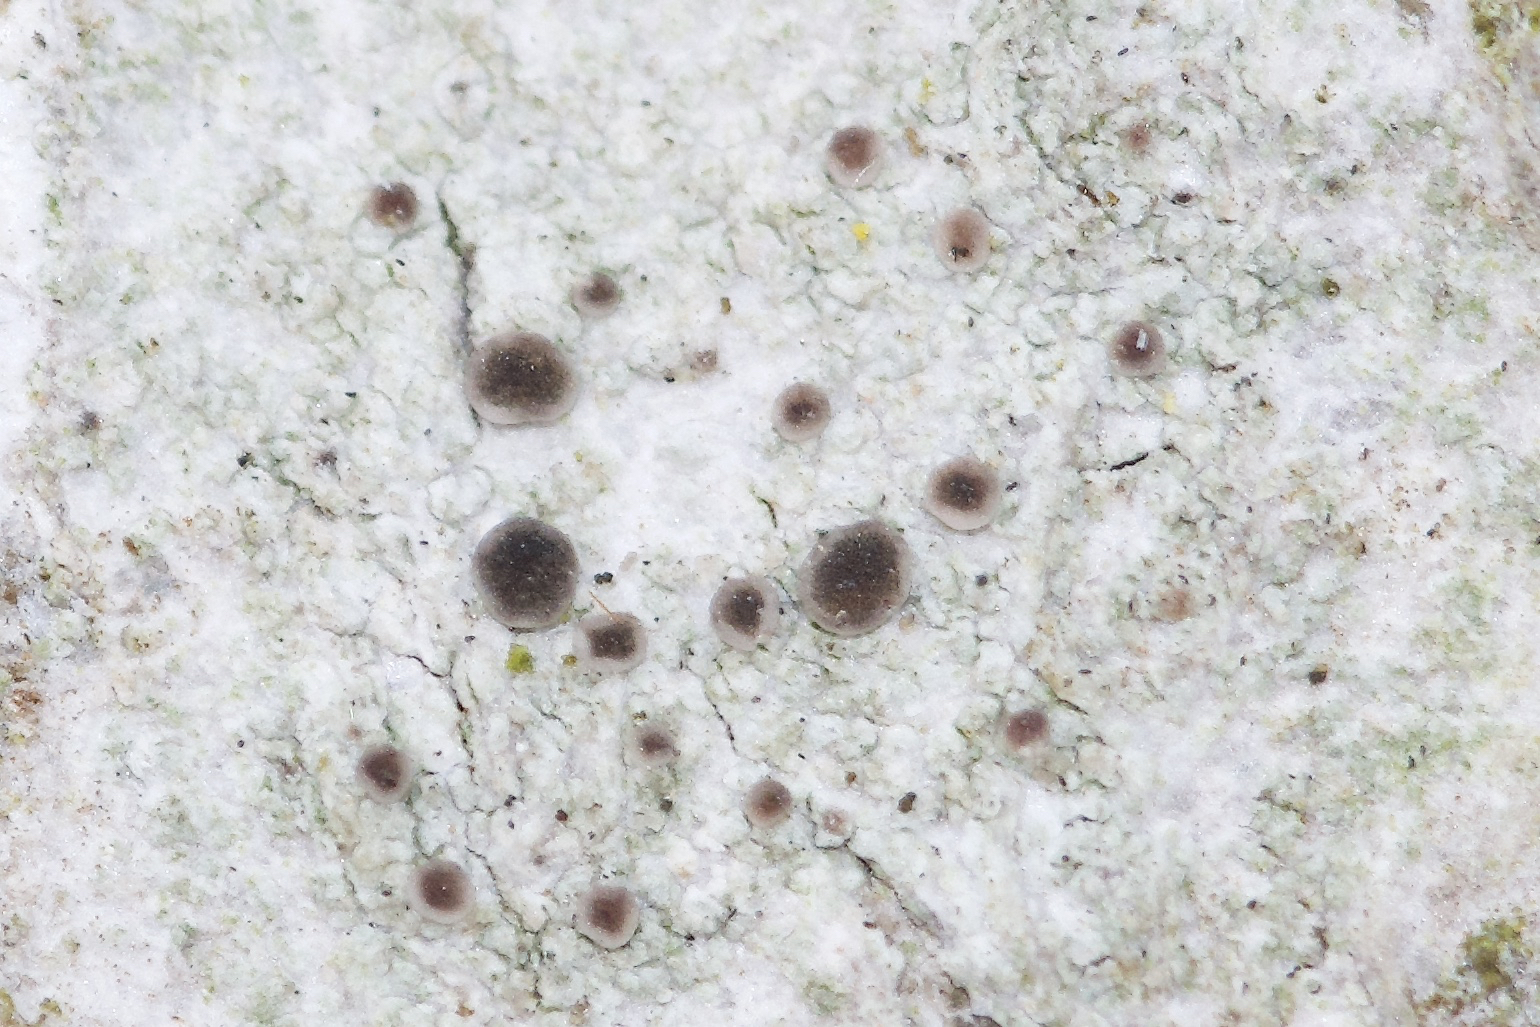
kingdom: Fungi
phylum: Ascomycota
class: Lecanoromycetes
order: Lecanorales
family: Ramalinaceae
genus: Lecania
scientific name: Lecania naegelii
